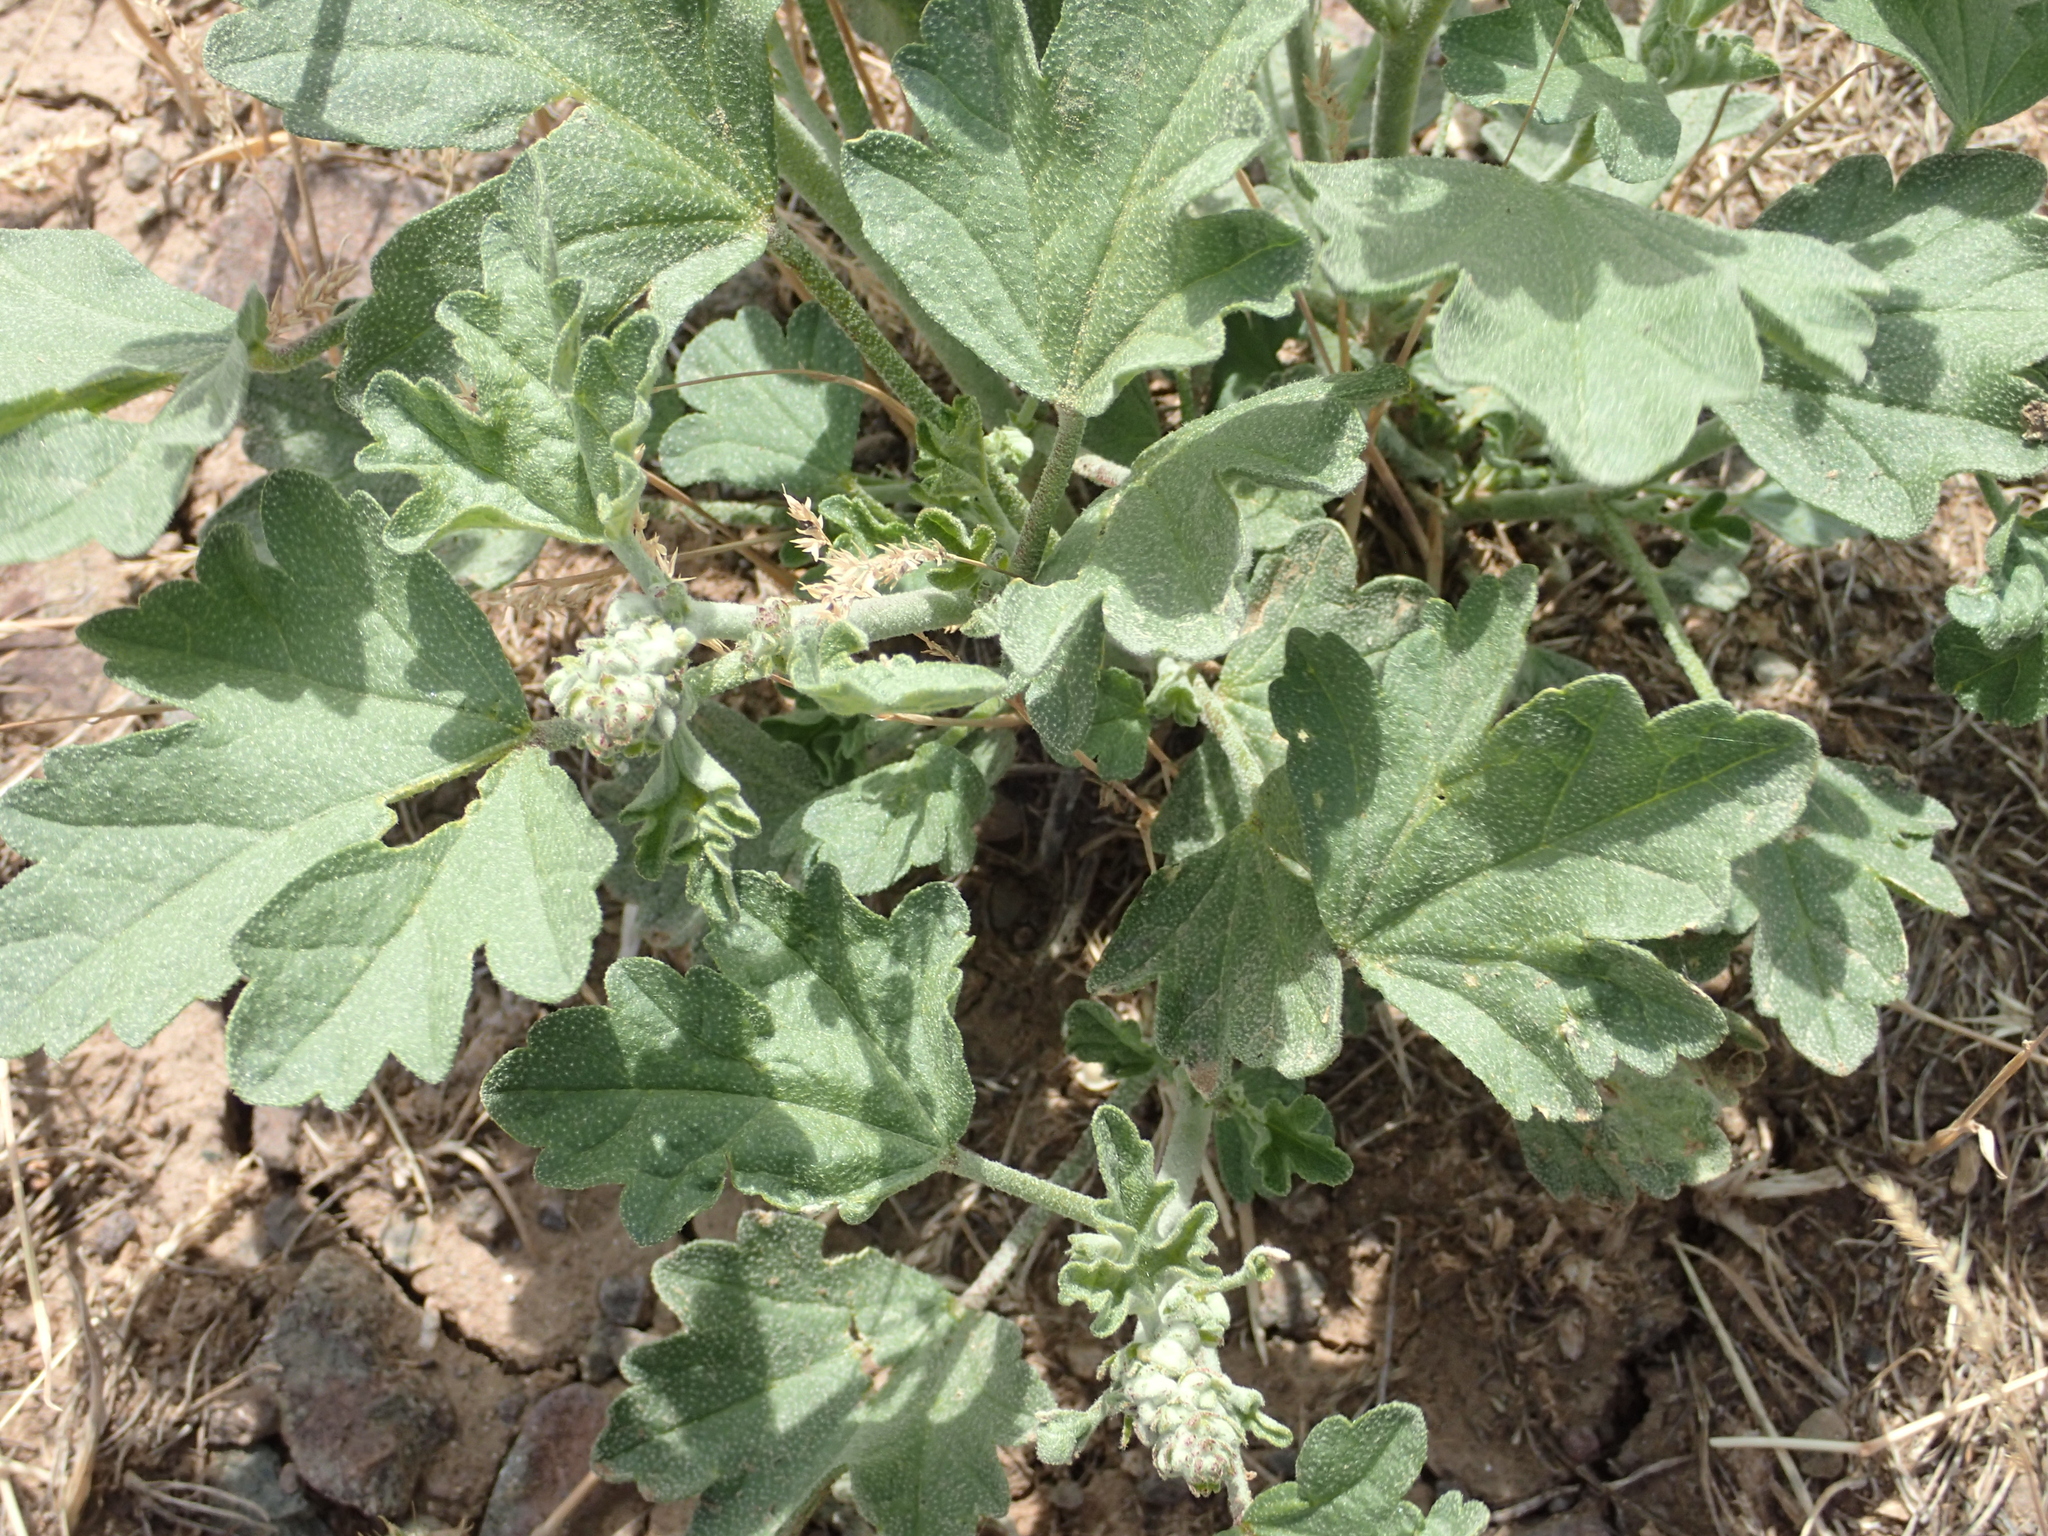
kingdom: Plantae
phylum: Tracheophyta
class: Magnoliopsida
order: Malvales
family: Malvaceae
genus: Sphaeralcea
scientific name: Sphaeralcea munroana
